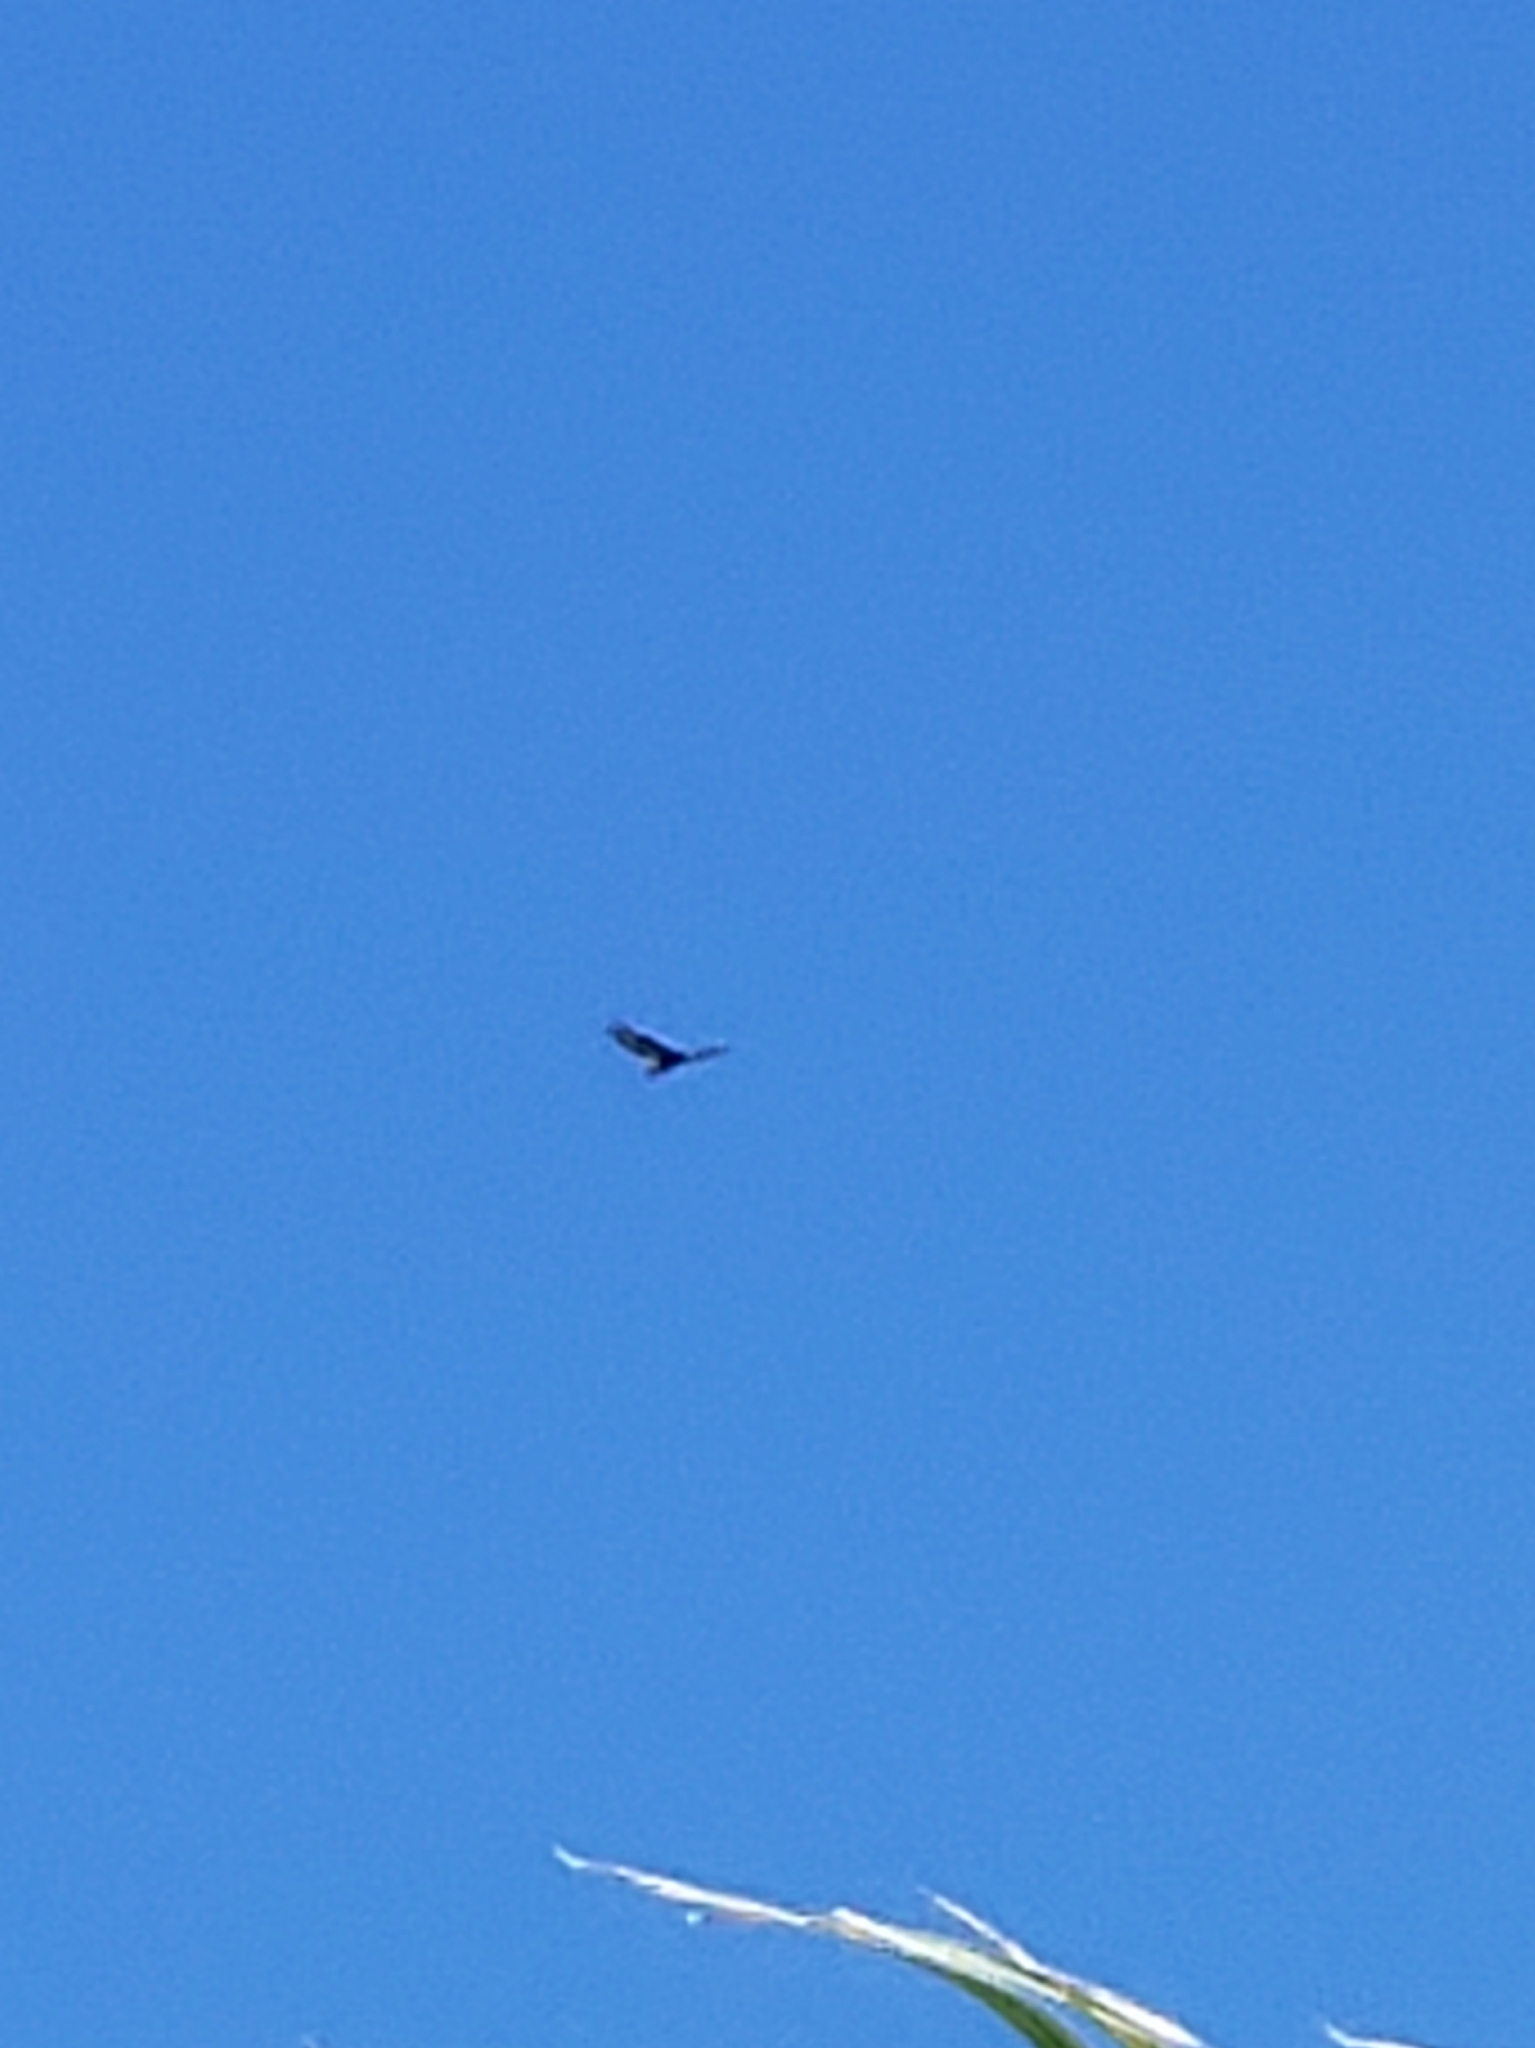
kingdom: Animalia
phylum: Chordata
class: Aves
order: Accipitriformes
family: Cathartidae
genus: Cathartes
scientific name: Cathartes aura
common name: Turkey vulture
